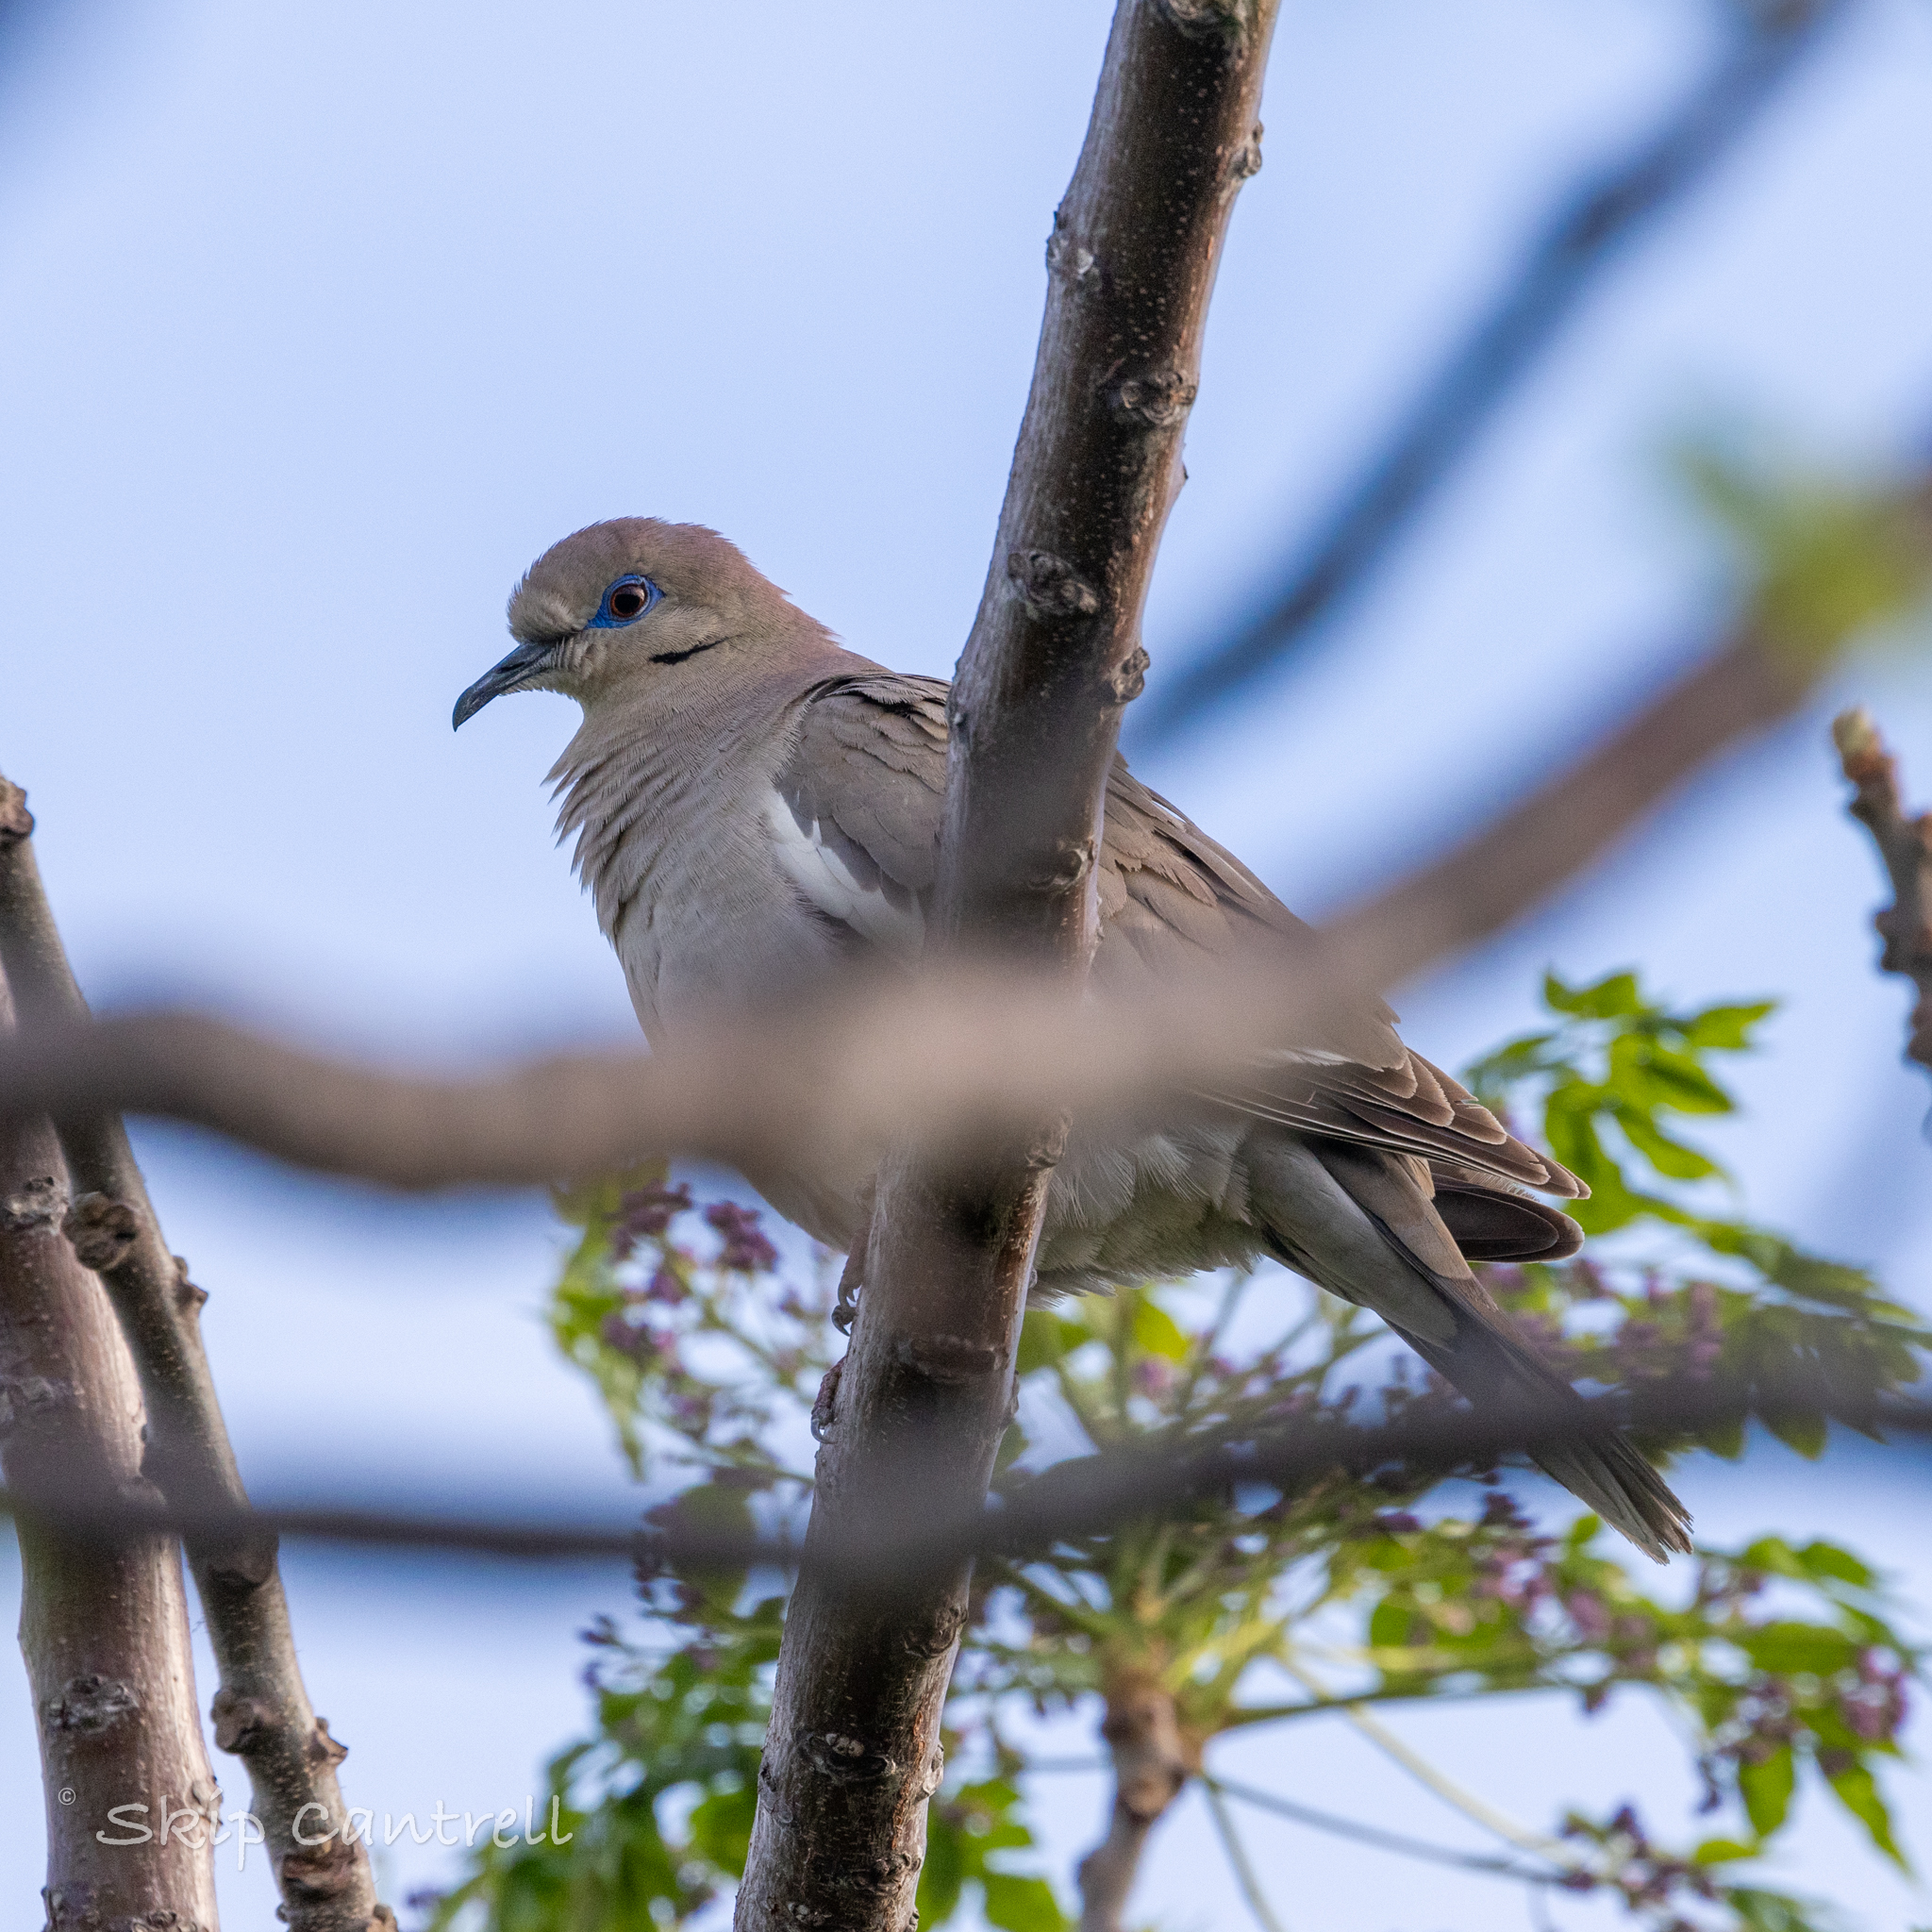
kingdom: Animalia
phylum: Chordata
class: Aves
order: Columbiformes
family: Columbidae
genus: Zenaida
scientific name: Zenaida asiatica
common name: White-winged dove
